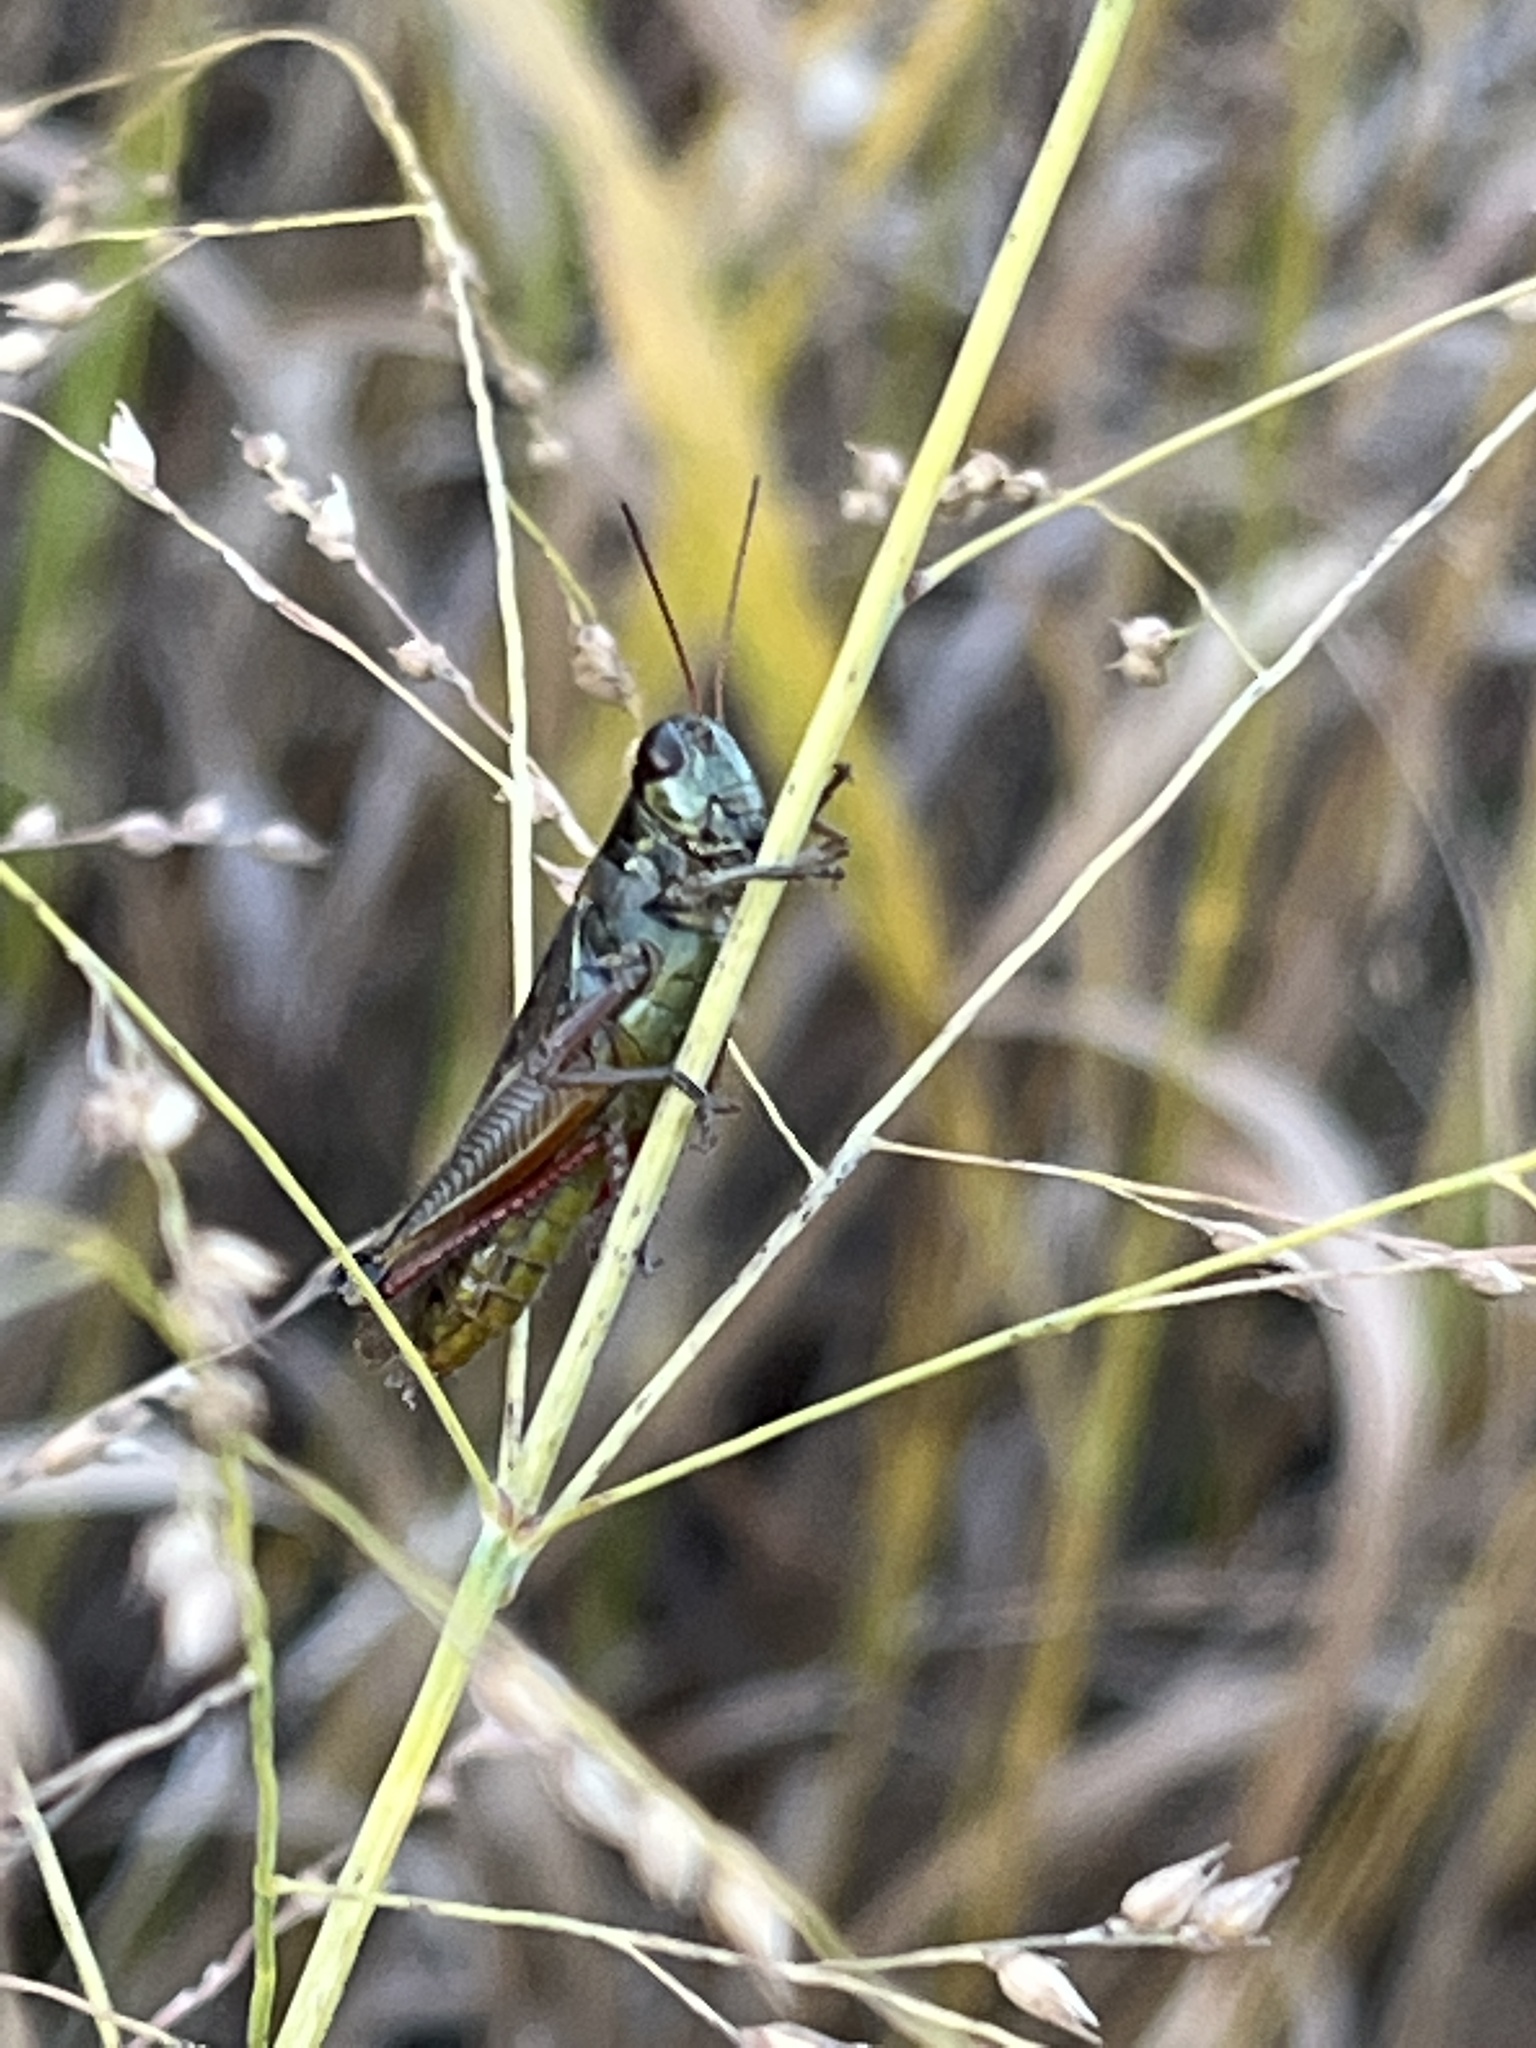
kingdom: Animalia
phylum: Arthropoda
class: Insecta
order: Orthoptera
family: Acrididae
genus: Melanoplus
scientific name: Melanoplus femurrubrum
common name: Red-legged grasshopper
